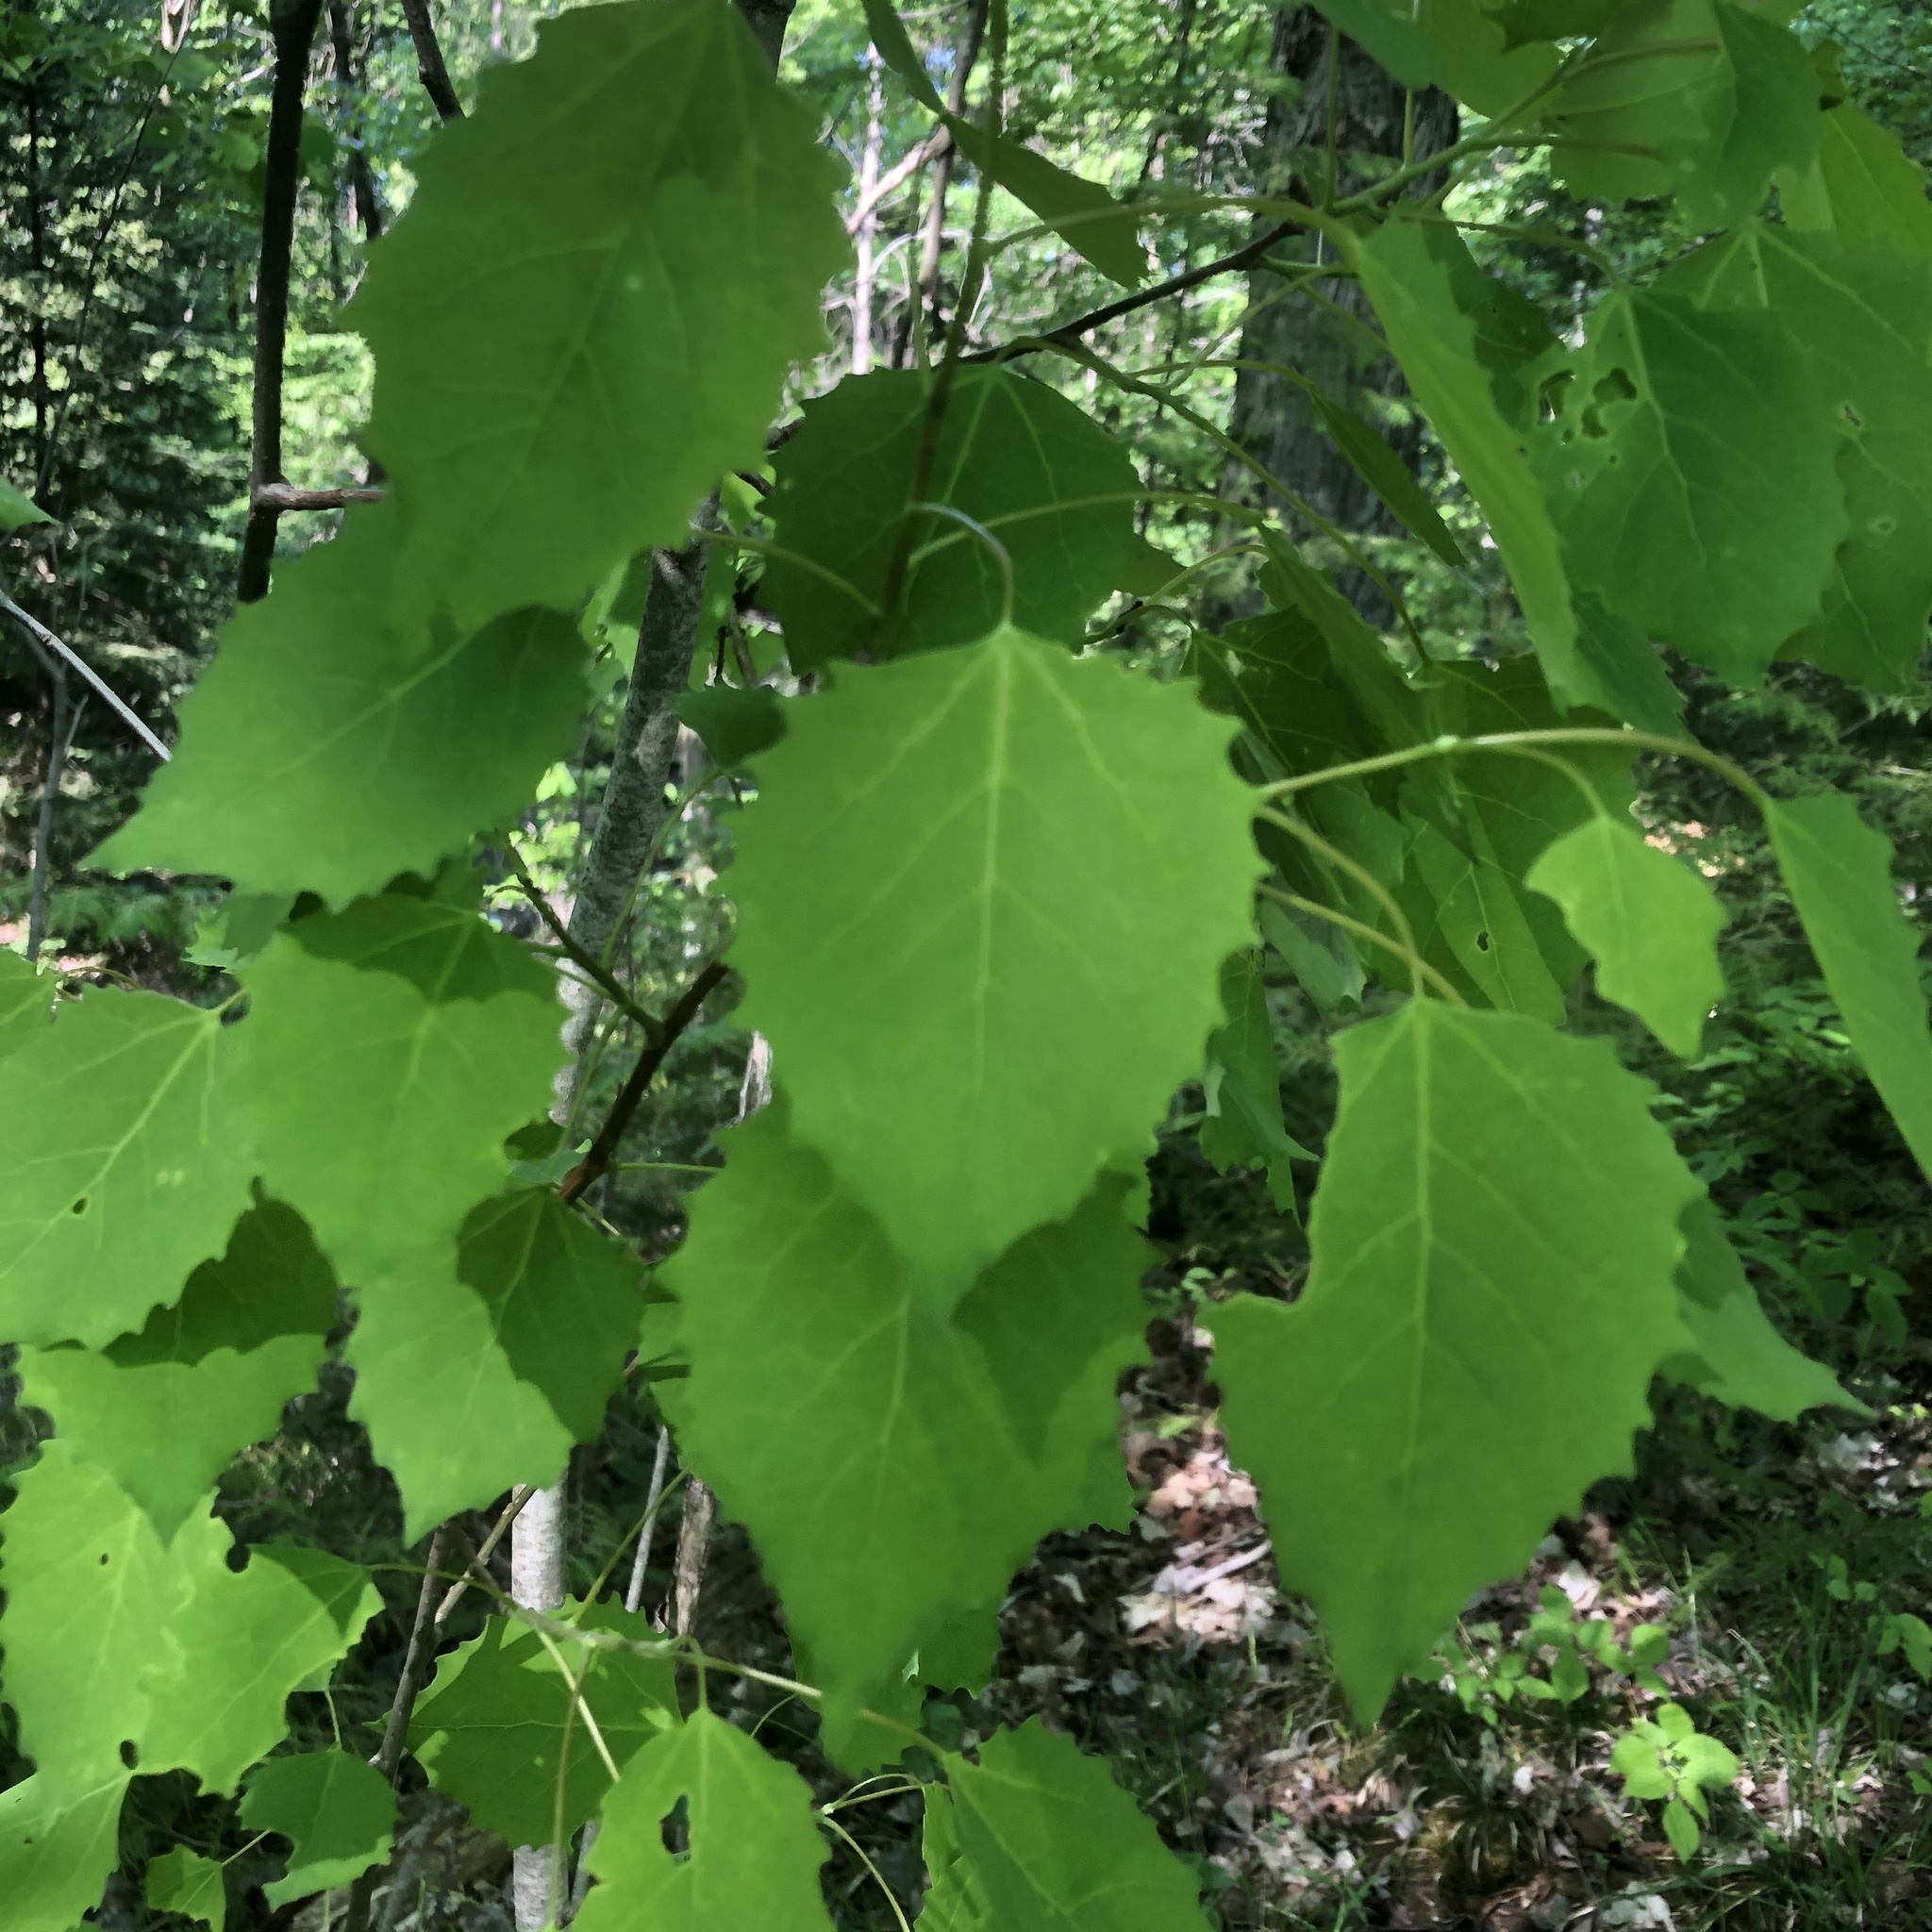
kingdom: Plantae
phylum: Tracheophyta
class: Magnoliopsida
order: Malpighiales
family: Salicaceae
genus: Populus
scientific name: Populus grandidentata
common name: Bigtooth aspen
